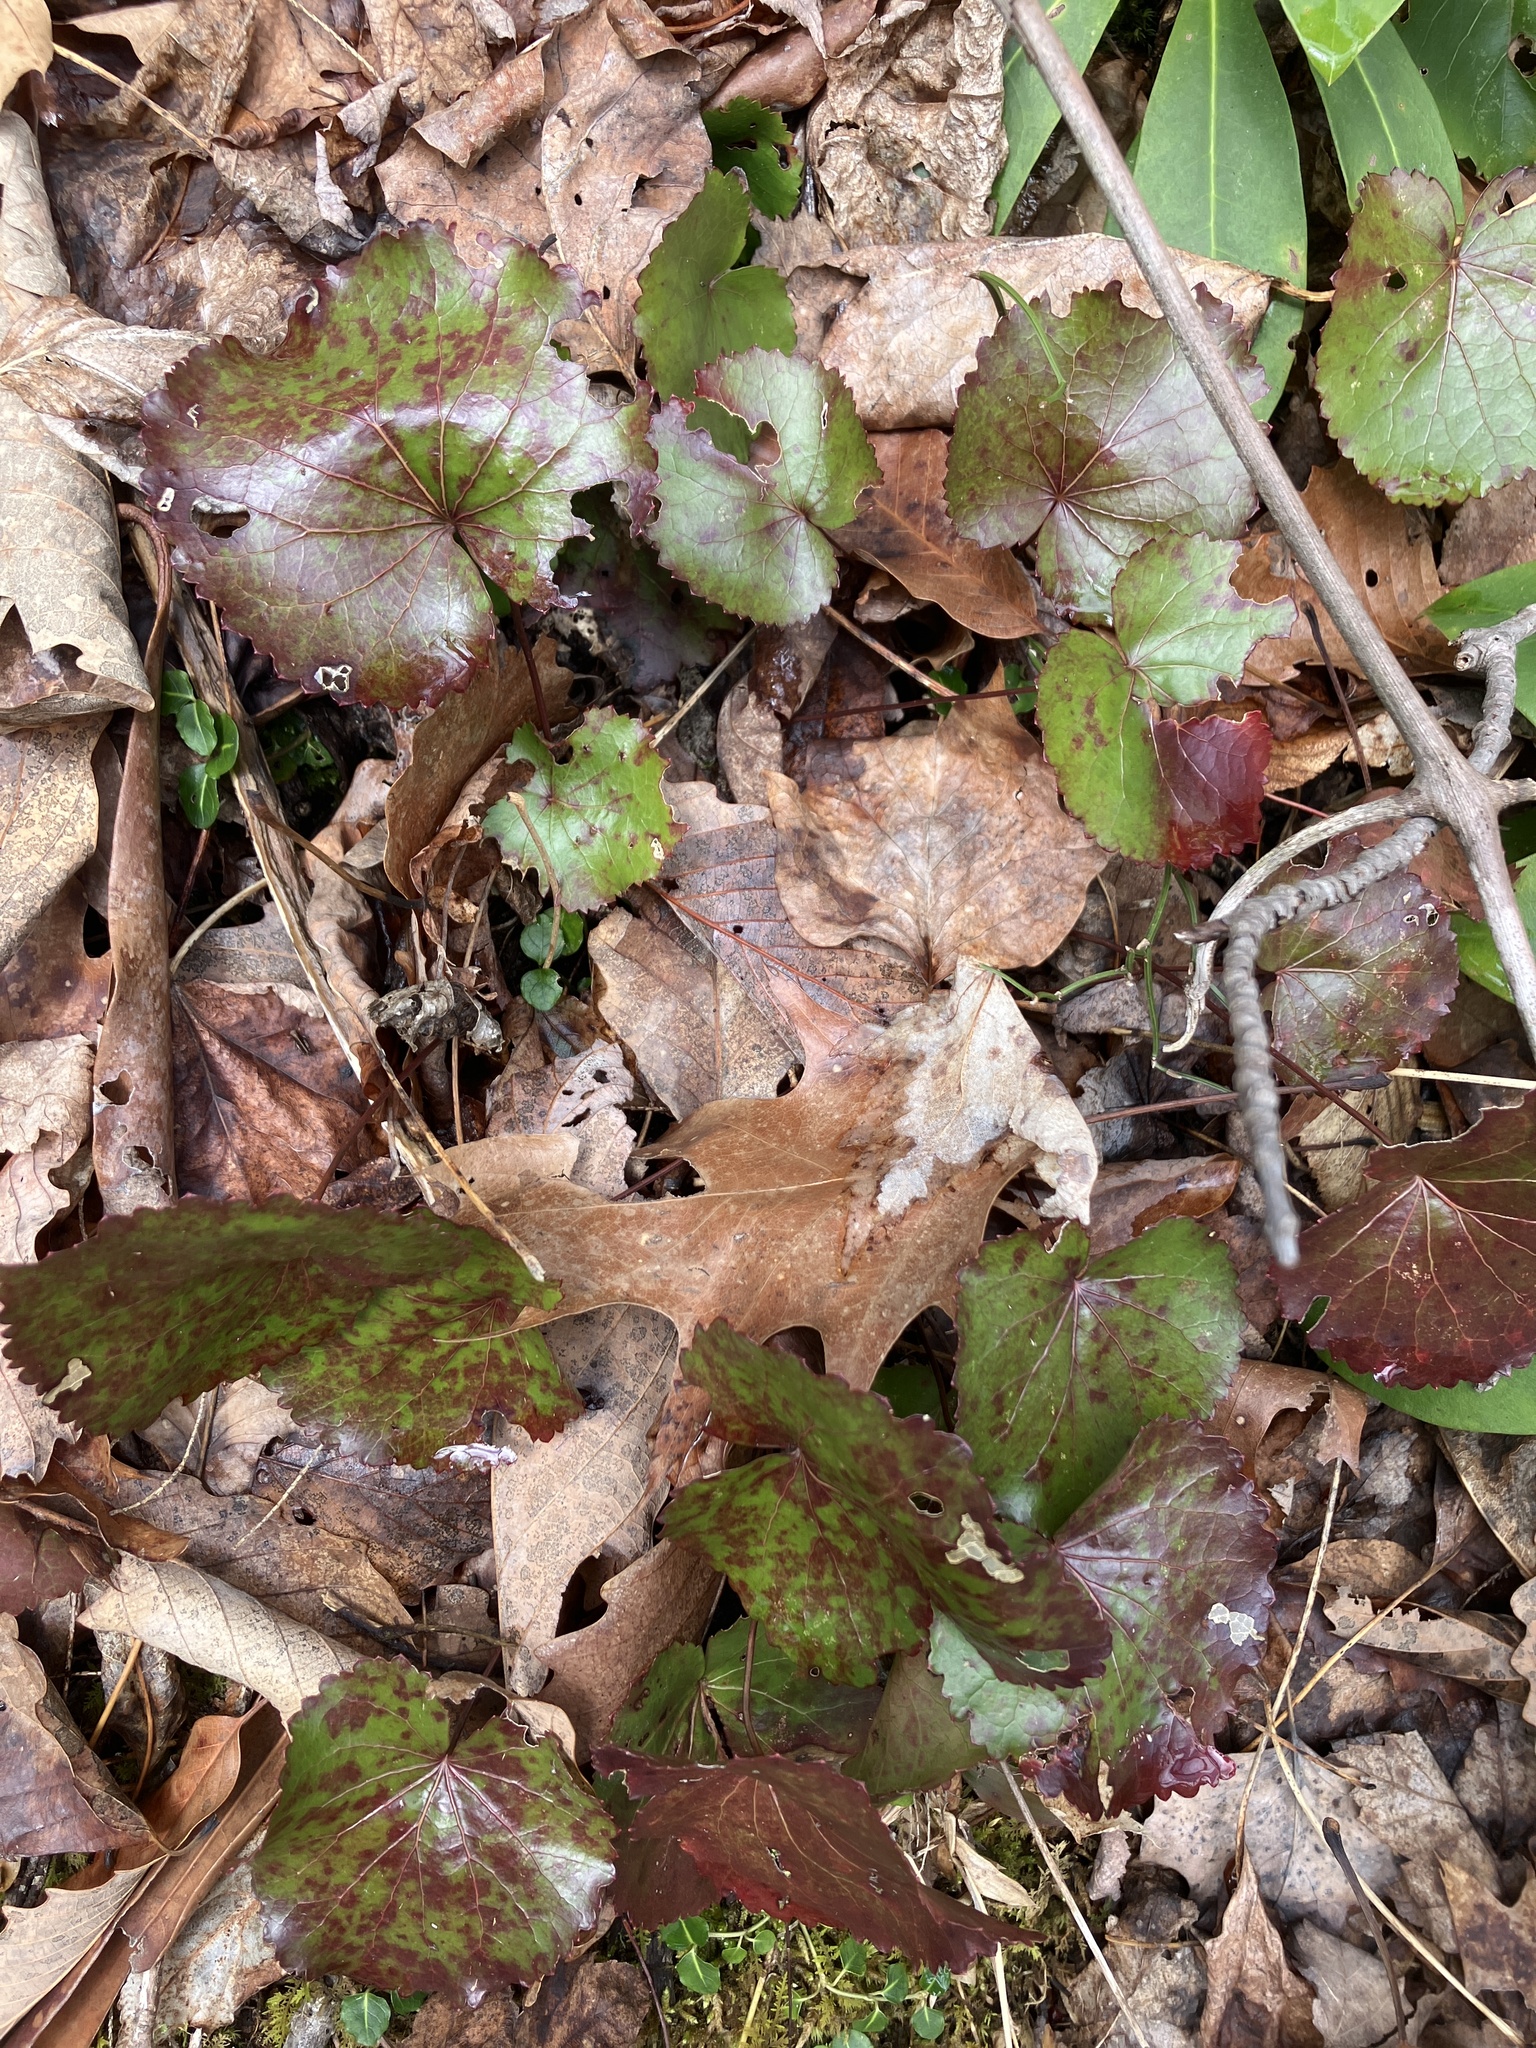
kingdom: Plantae
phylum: Tracheophyta
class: Magnoliopsida
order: Ericales
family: Diapensiaceae
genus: Galax
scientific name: Galax urceolata
